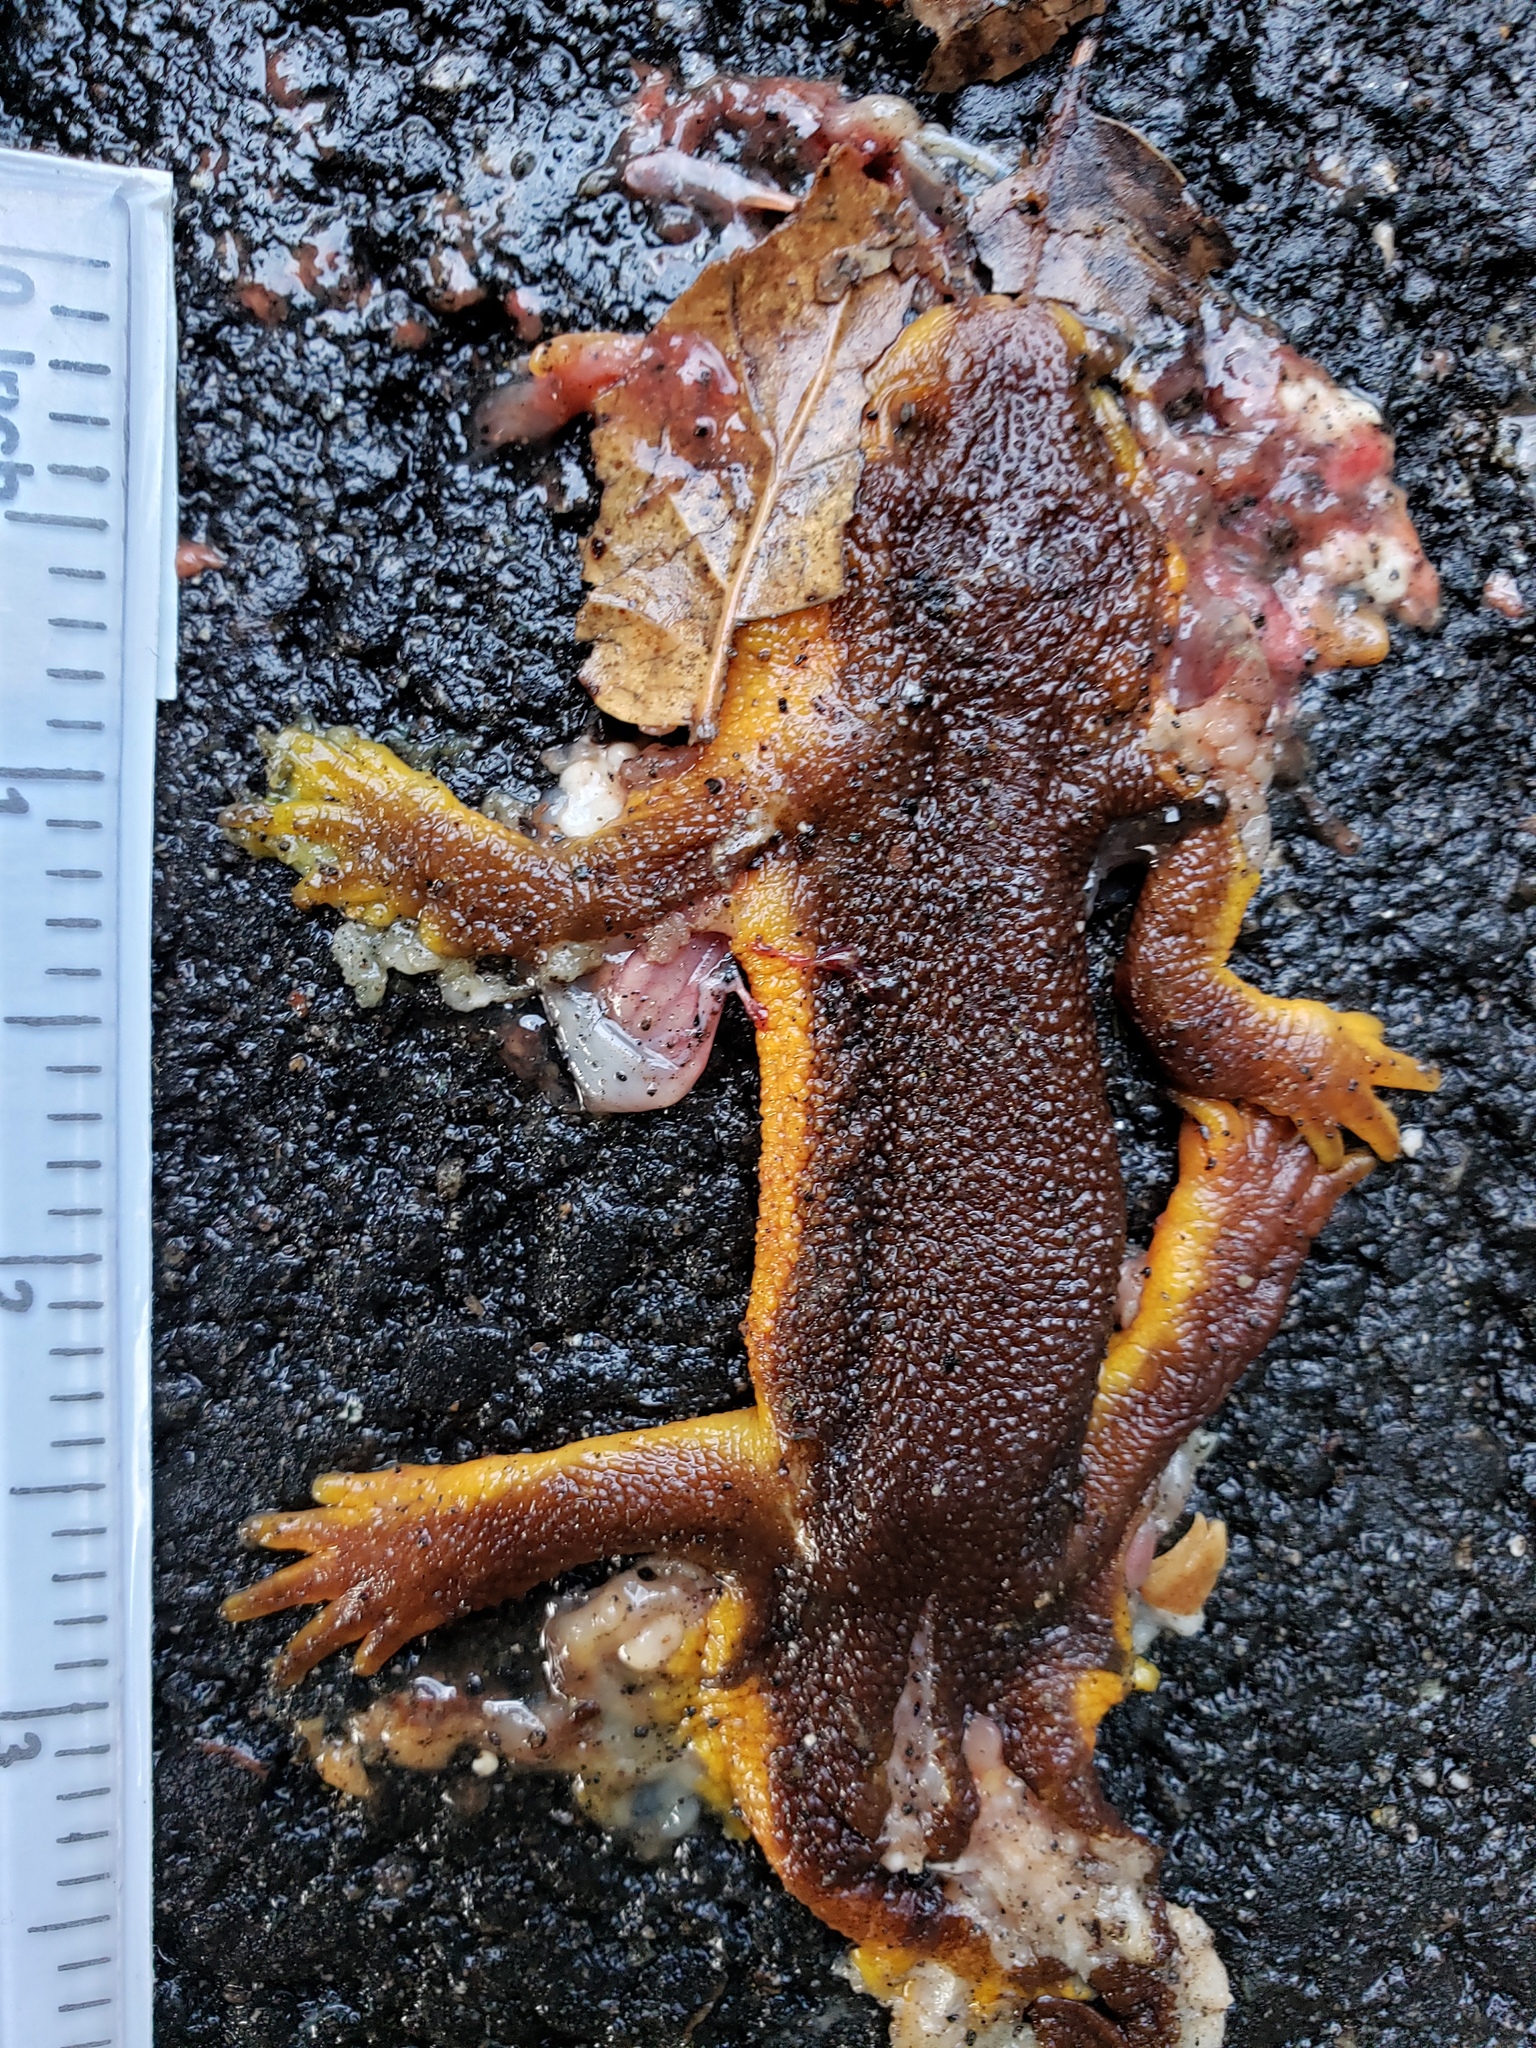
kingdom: Animalia
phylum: Chordata
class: Amphibia
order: Caudata
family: Salamandridae
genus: Taricha
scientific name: Taricha
